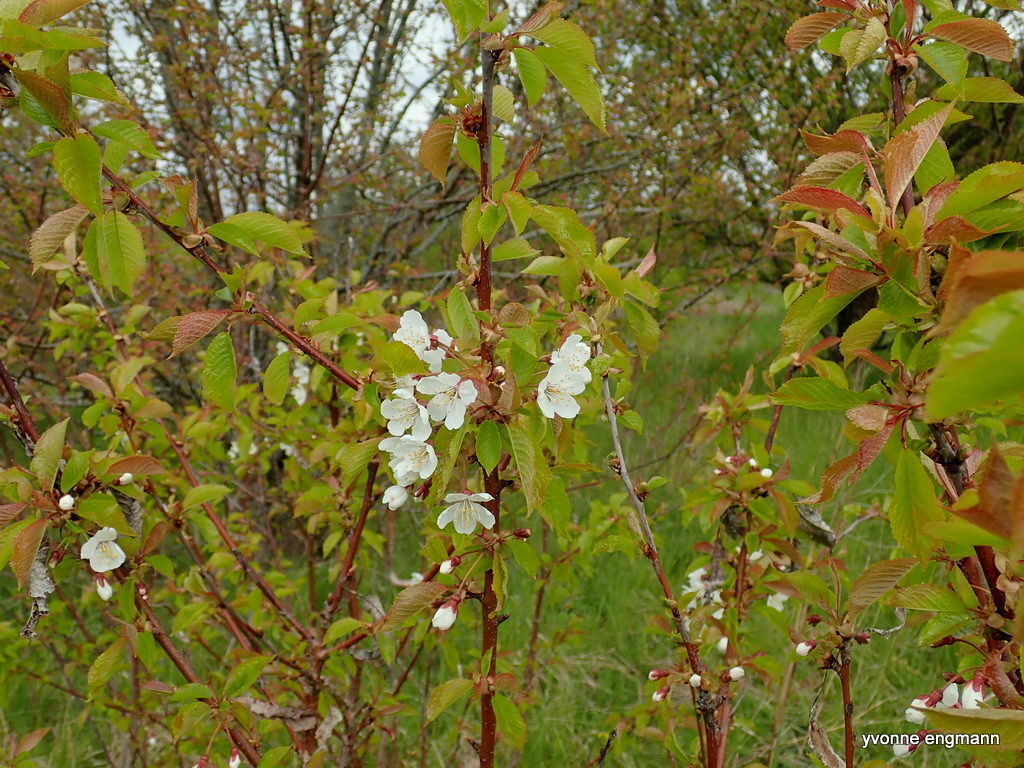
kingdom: Plantae
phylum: Tracheophyta
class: Magnoliopsida
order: Rosales
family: Rosaceae
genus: Prunus
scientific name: Prunus avium
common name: Sweet cherry
